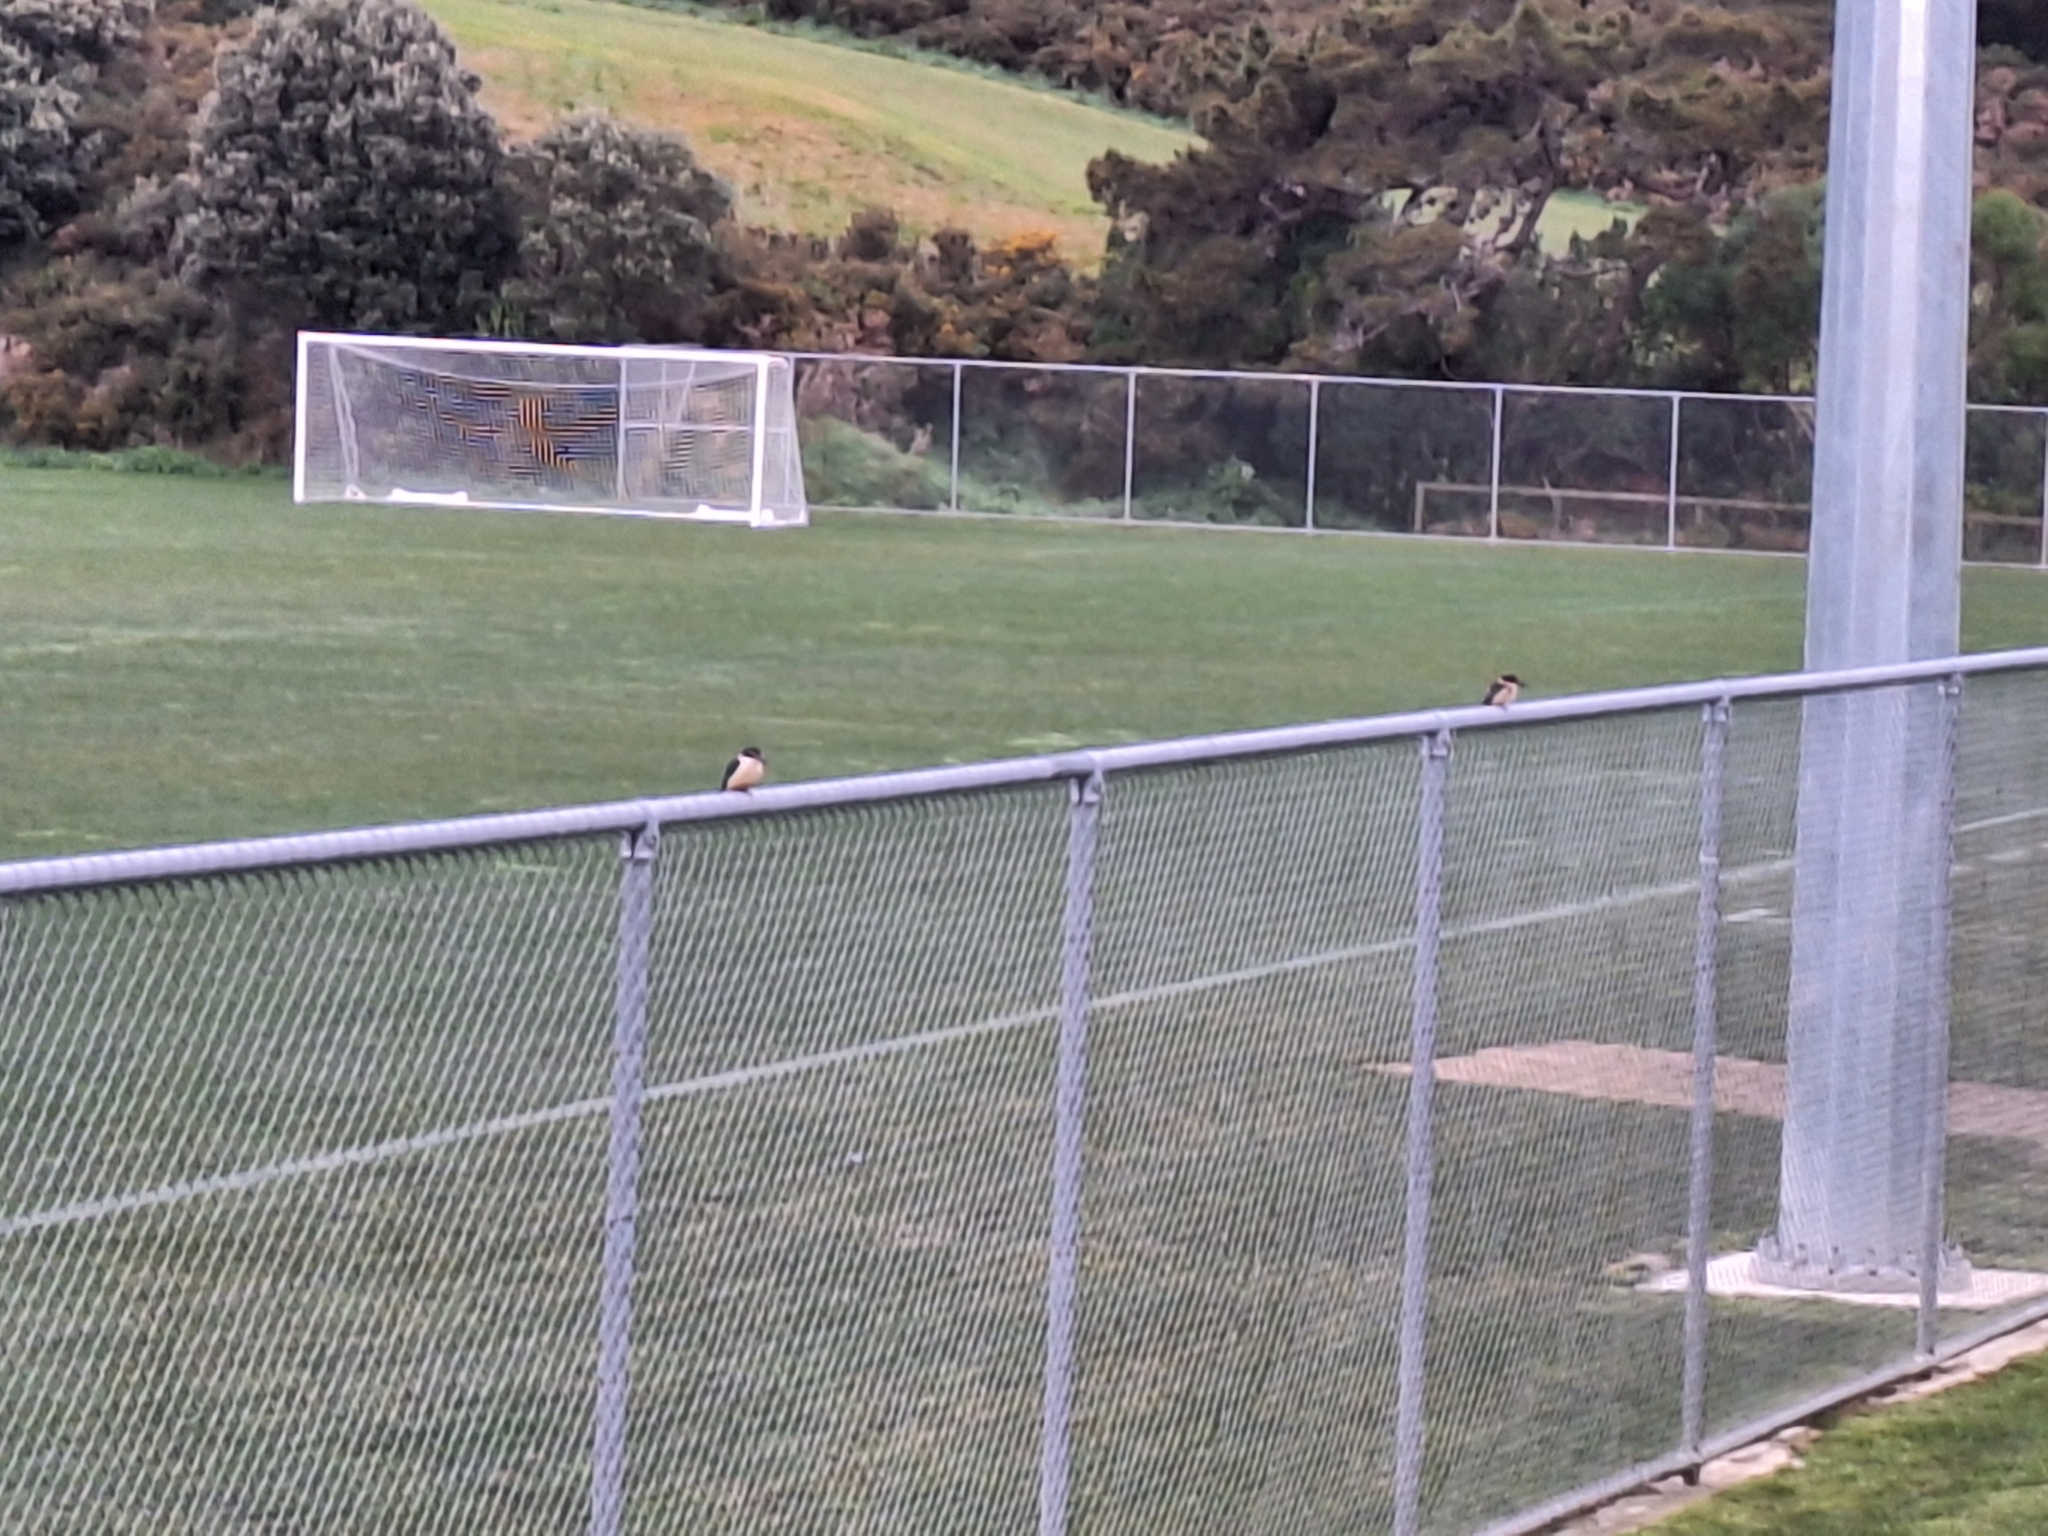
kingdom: Animalia
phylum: Chordata
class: Aves
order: Coraciiformes
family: Alcedinidae
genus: Todiramphus
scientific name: Todiramphus sanctus
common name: Sacred kingfisher
